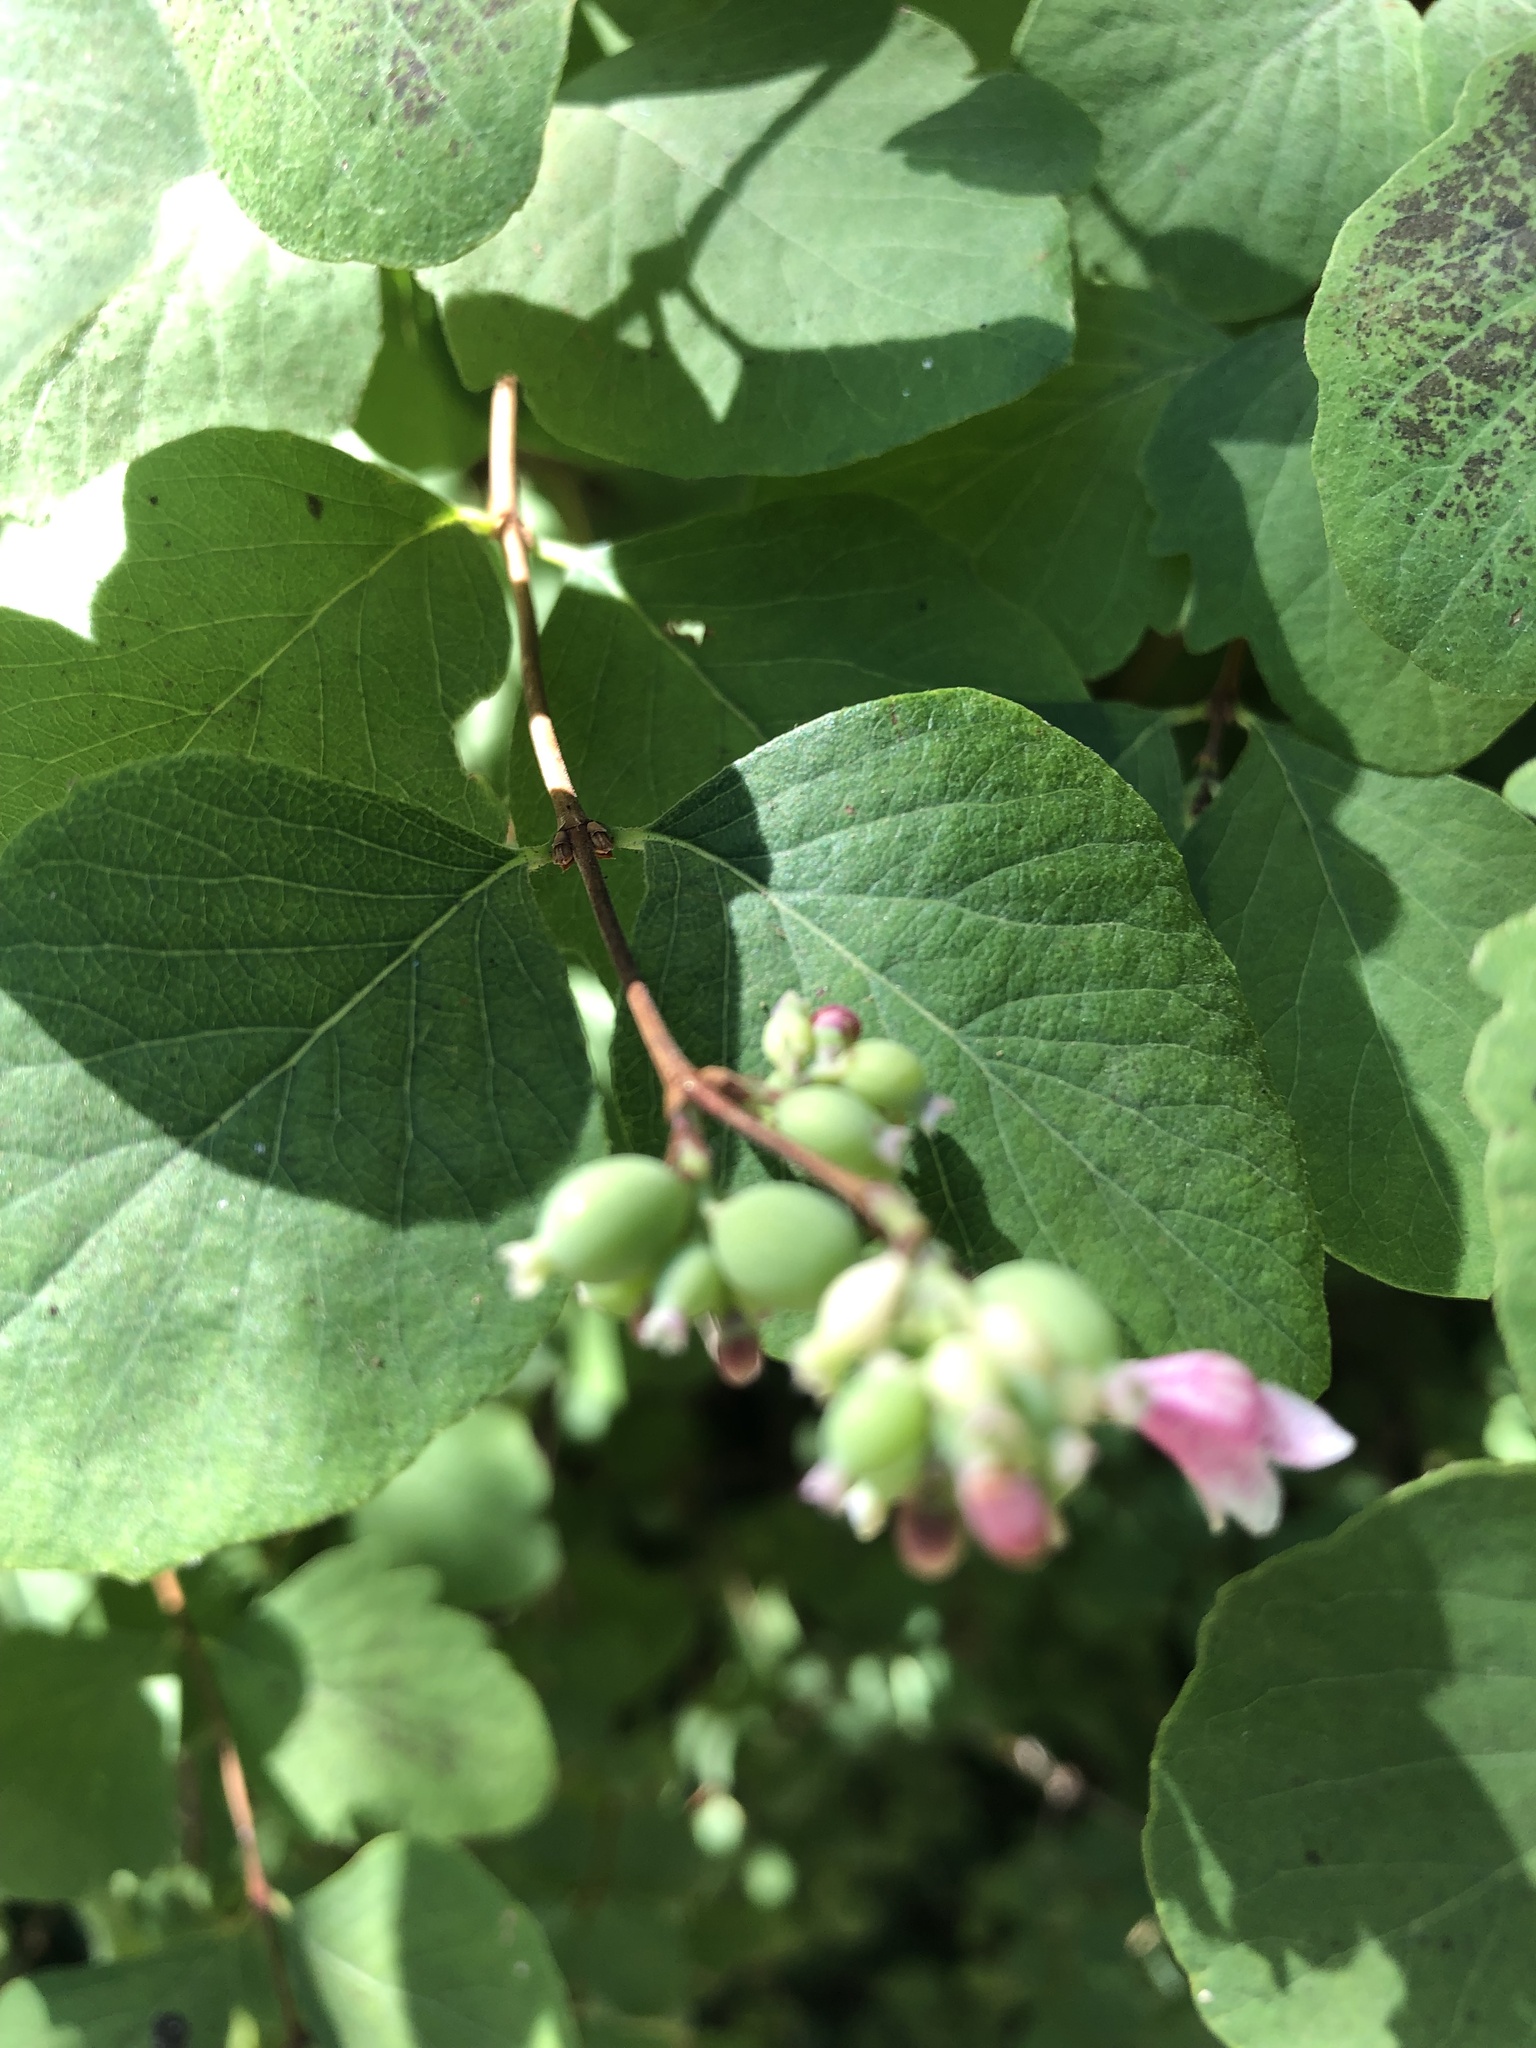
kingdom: Plantae
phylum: Tracheophyta
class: Magnoliopsida
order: Dipsacales
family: Caprifoliaceae
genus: Symphoricarpos
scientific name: Symphoricarpos albus
